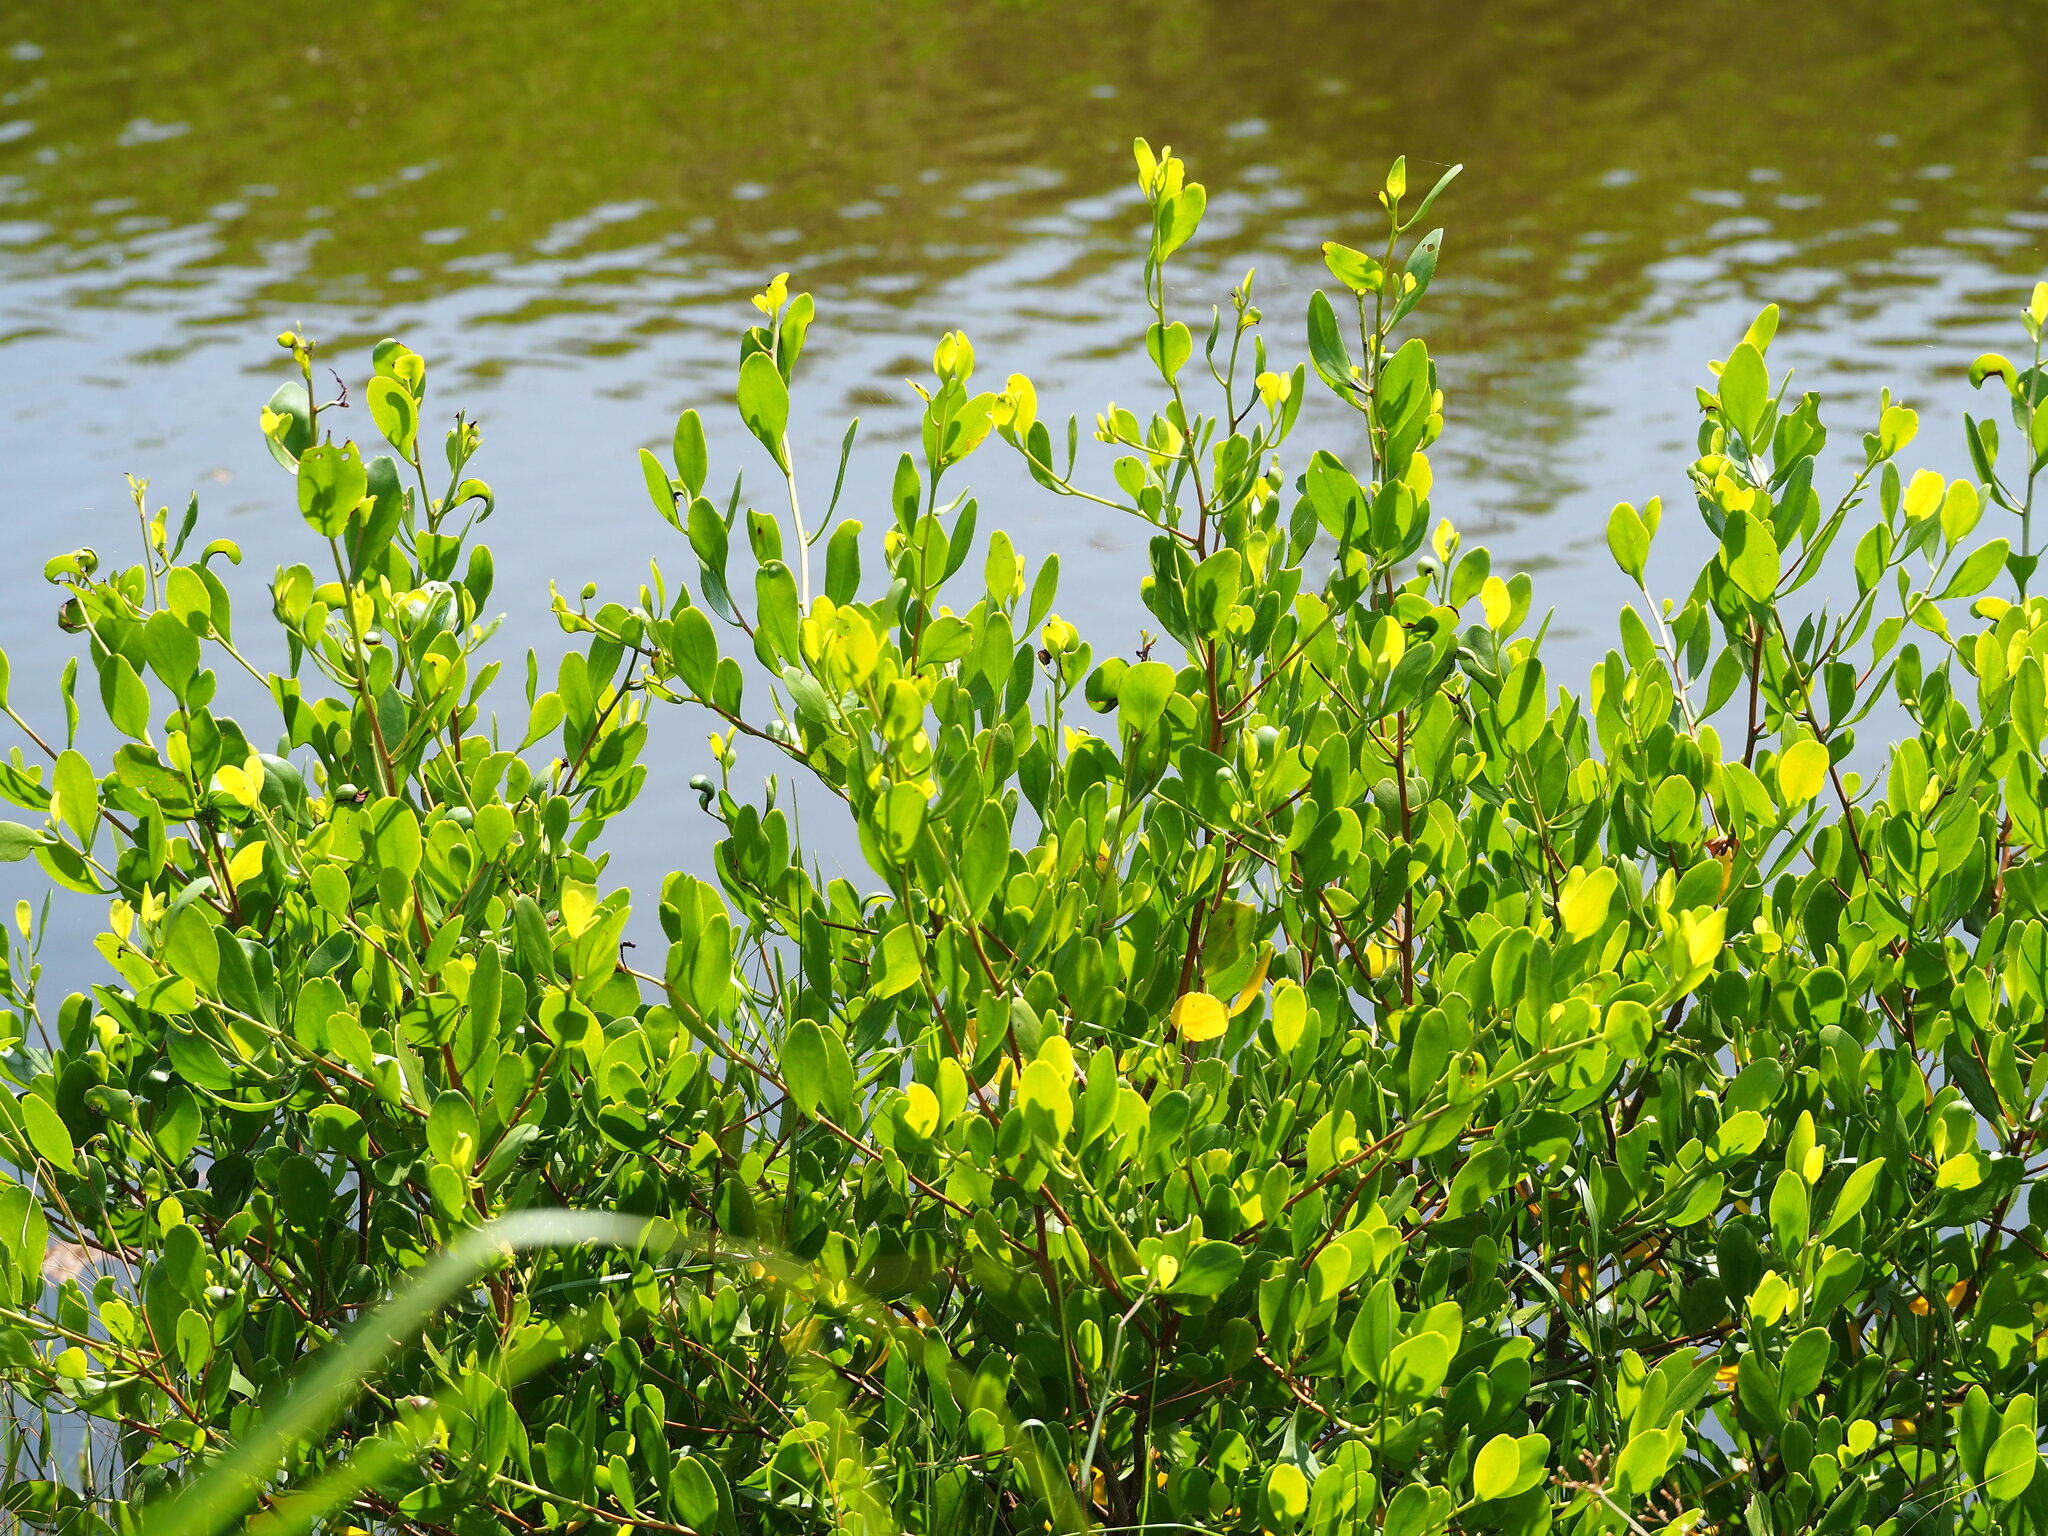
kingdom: Plantae
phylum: Tracheophyta
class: Magnoliopsida
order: Myrtales
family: Combretaceae
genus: Lumnitzera
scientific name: Lumnitzera racemosa
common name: White-flowered black mangrove
